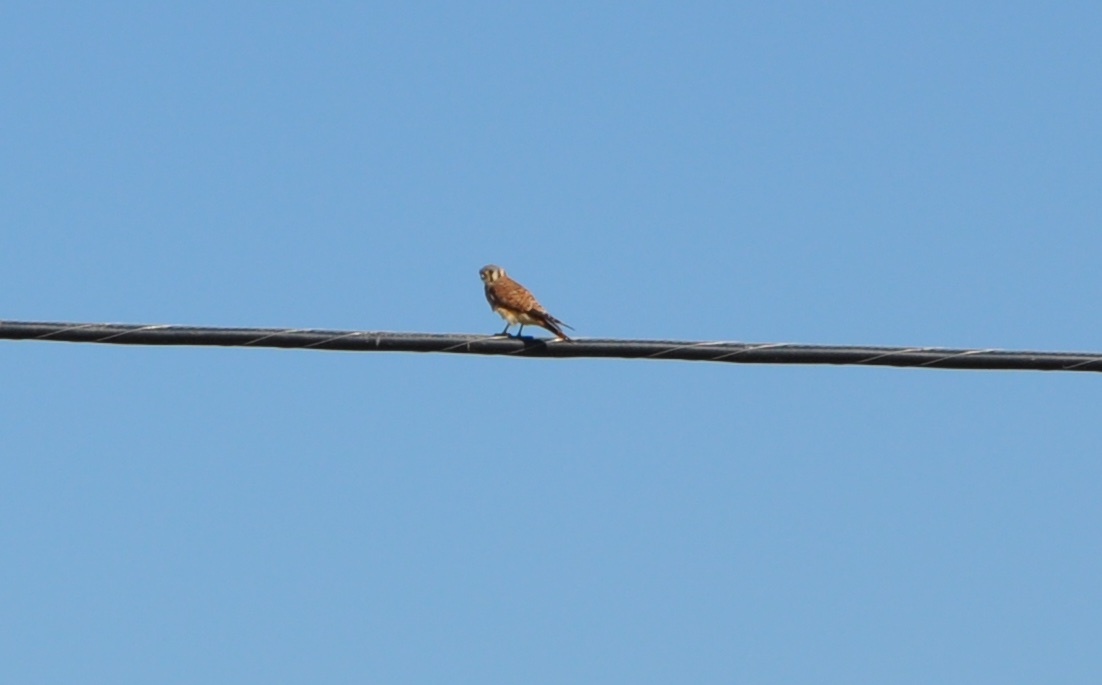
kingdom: Animalia
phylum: Chordata
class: Aves
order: Falconiformes
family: Falconidae
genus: Falco
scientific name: Falco sparverius
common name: American kestrel
